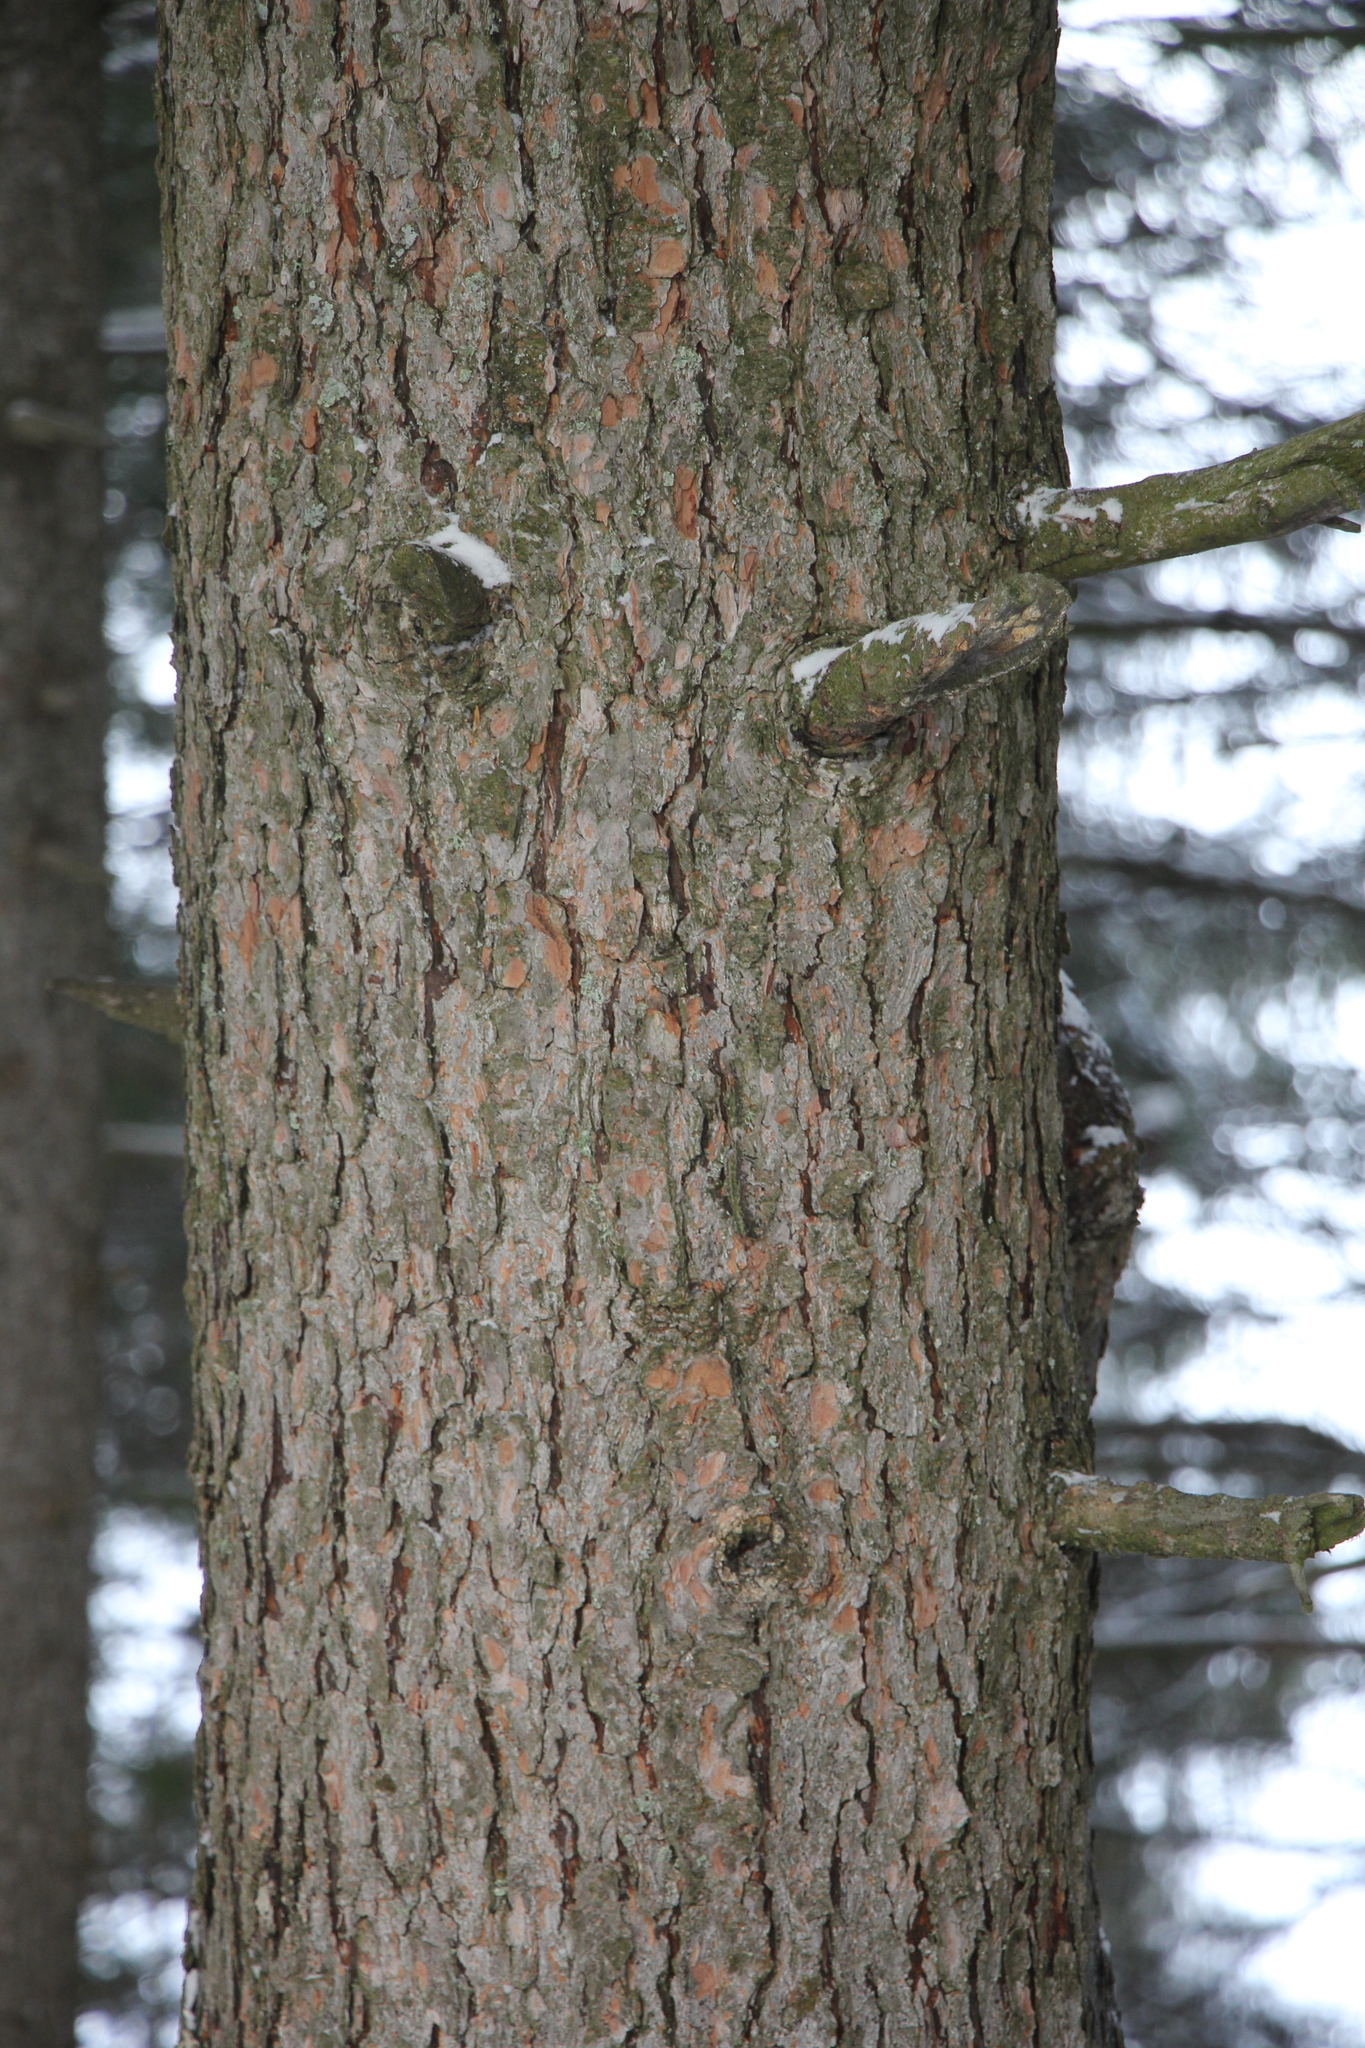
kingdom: Plantae
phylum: Tracheophyta
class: Pinopsida
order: Pinales
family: Pinaceae
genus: Pinus
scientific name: Pinus sibirica
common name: Siberian pine
